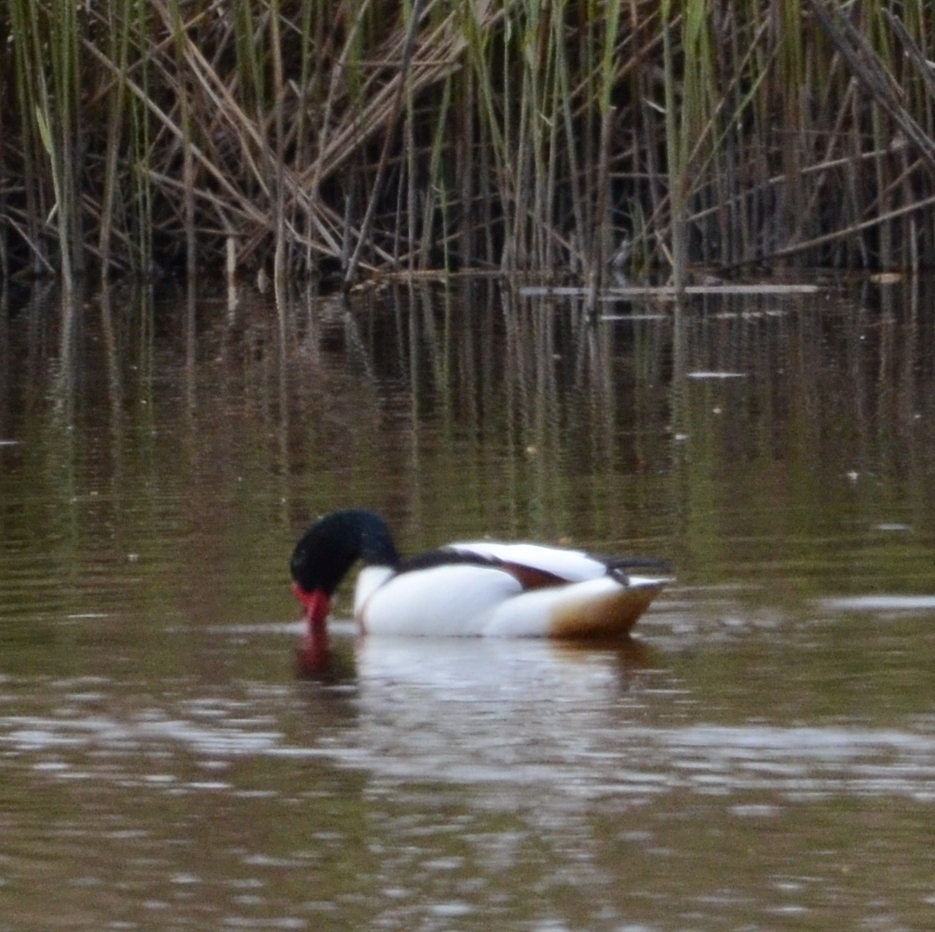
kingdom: Animalia
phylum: Chordata
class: Aves
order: Anseriformes
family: Anatidae
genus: Tadorna
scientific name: Tadorna tadorna
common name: Common shelduck
